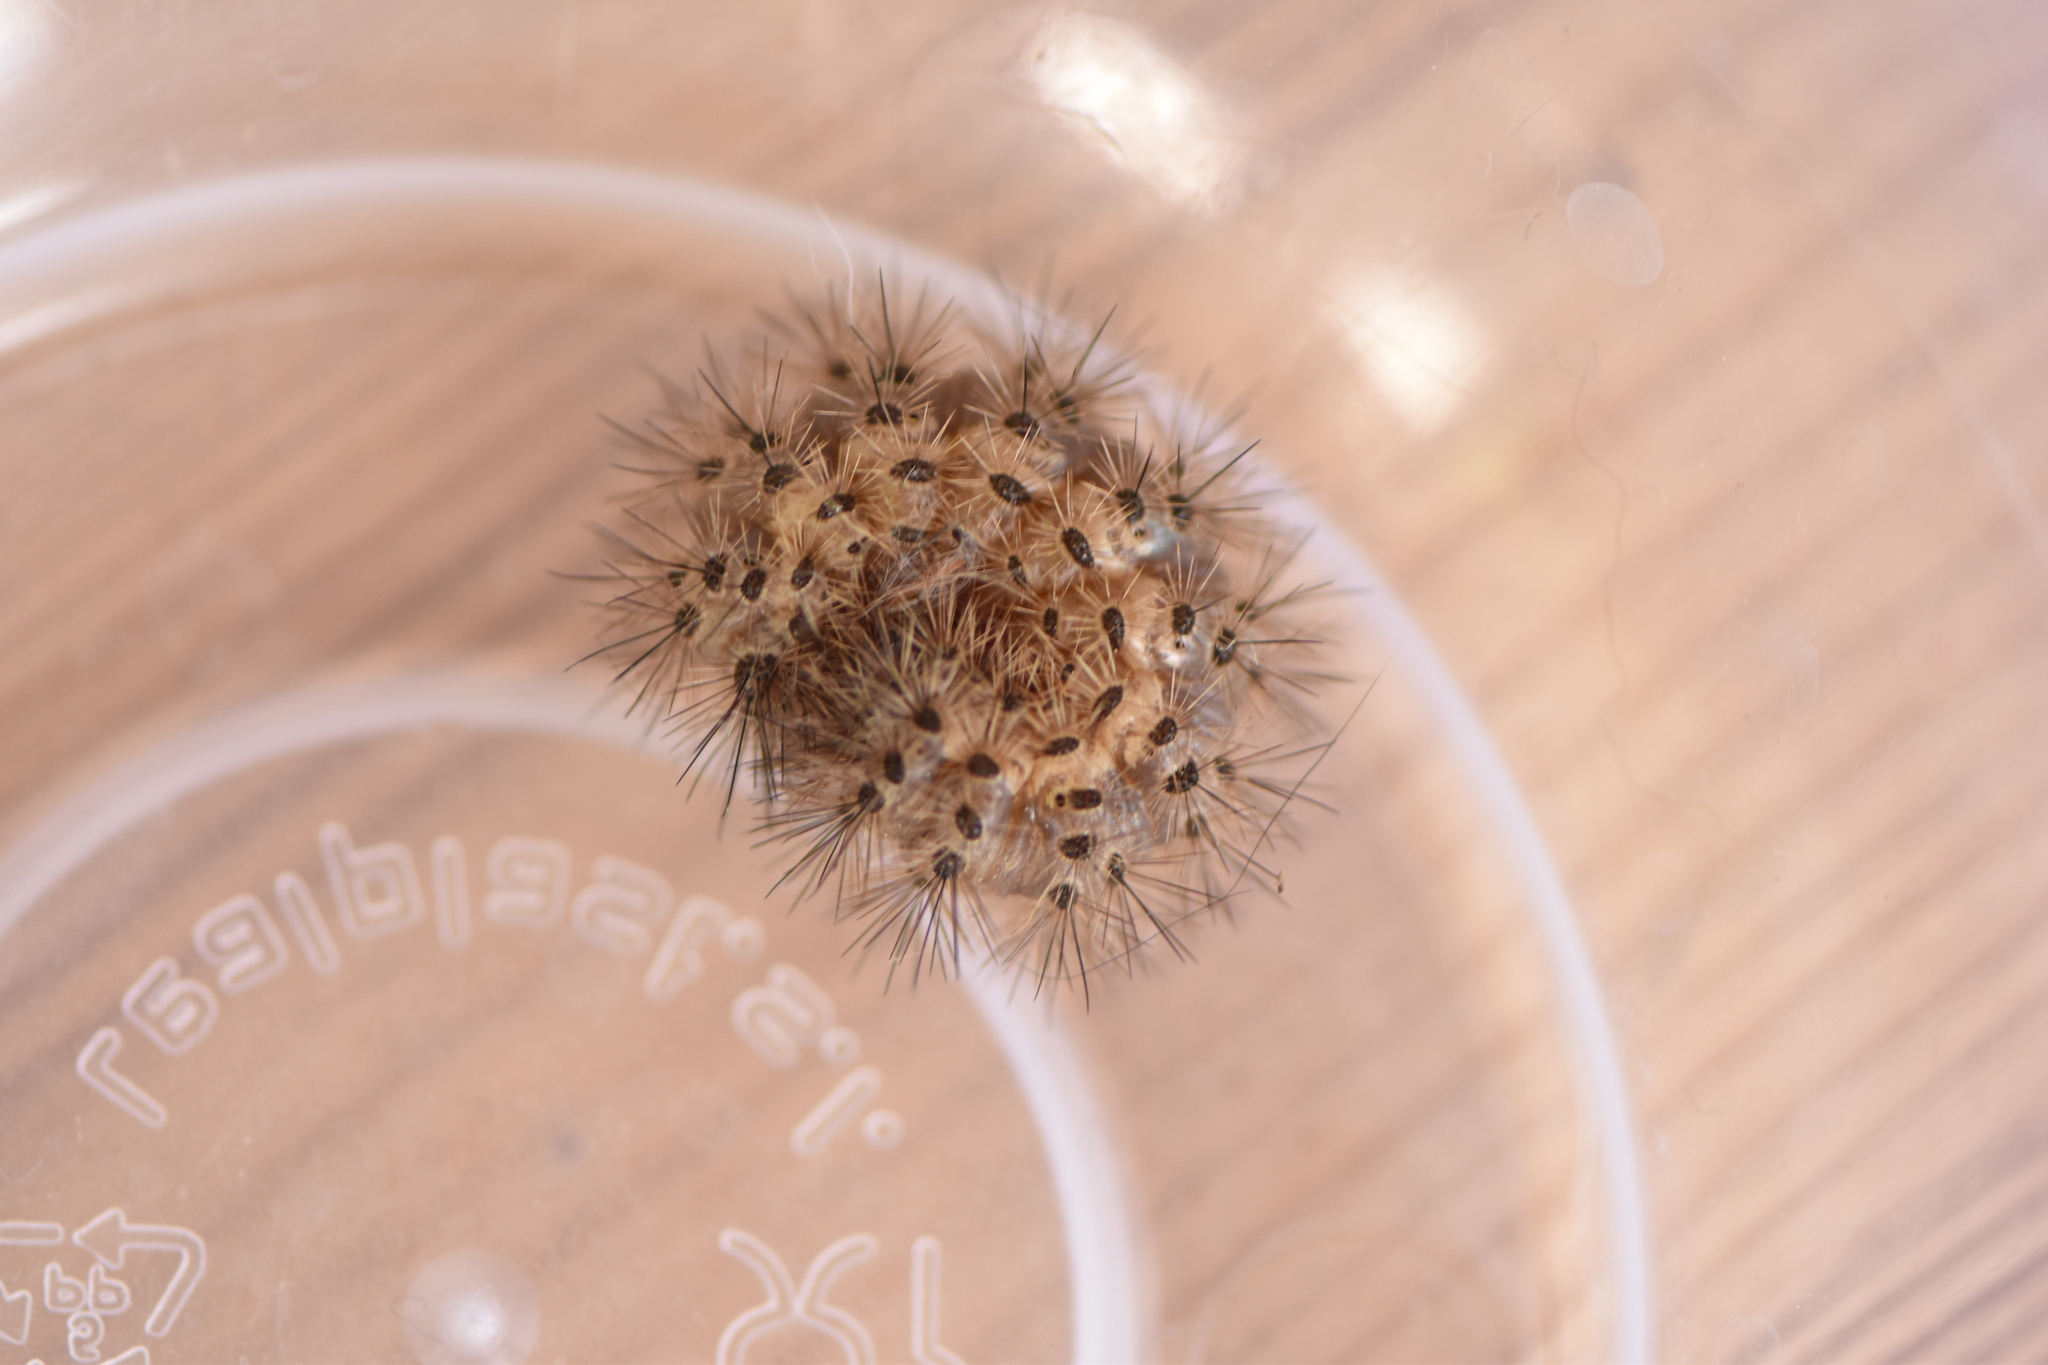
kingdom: Animalia
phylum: Arthropoda
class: Insecta
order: Lepidoptera
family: Erebidae
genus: Cymbalophora
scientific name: Cymbalophora pudica
